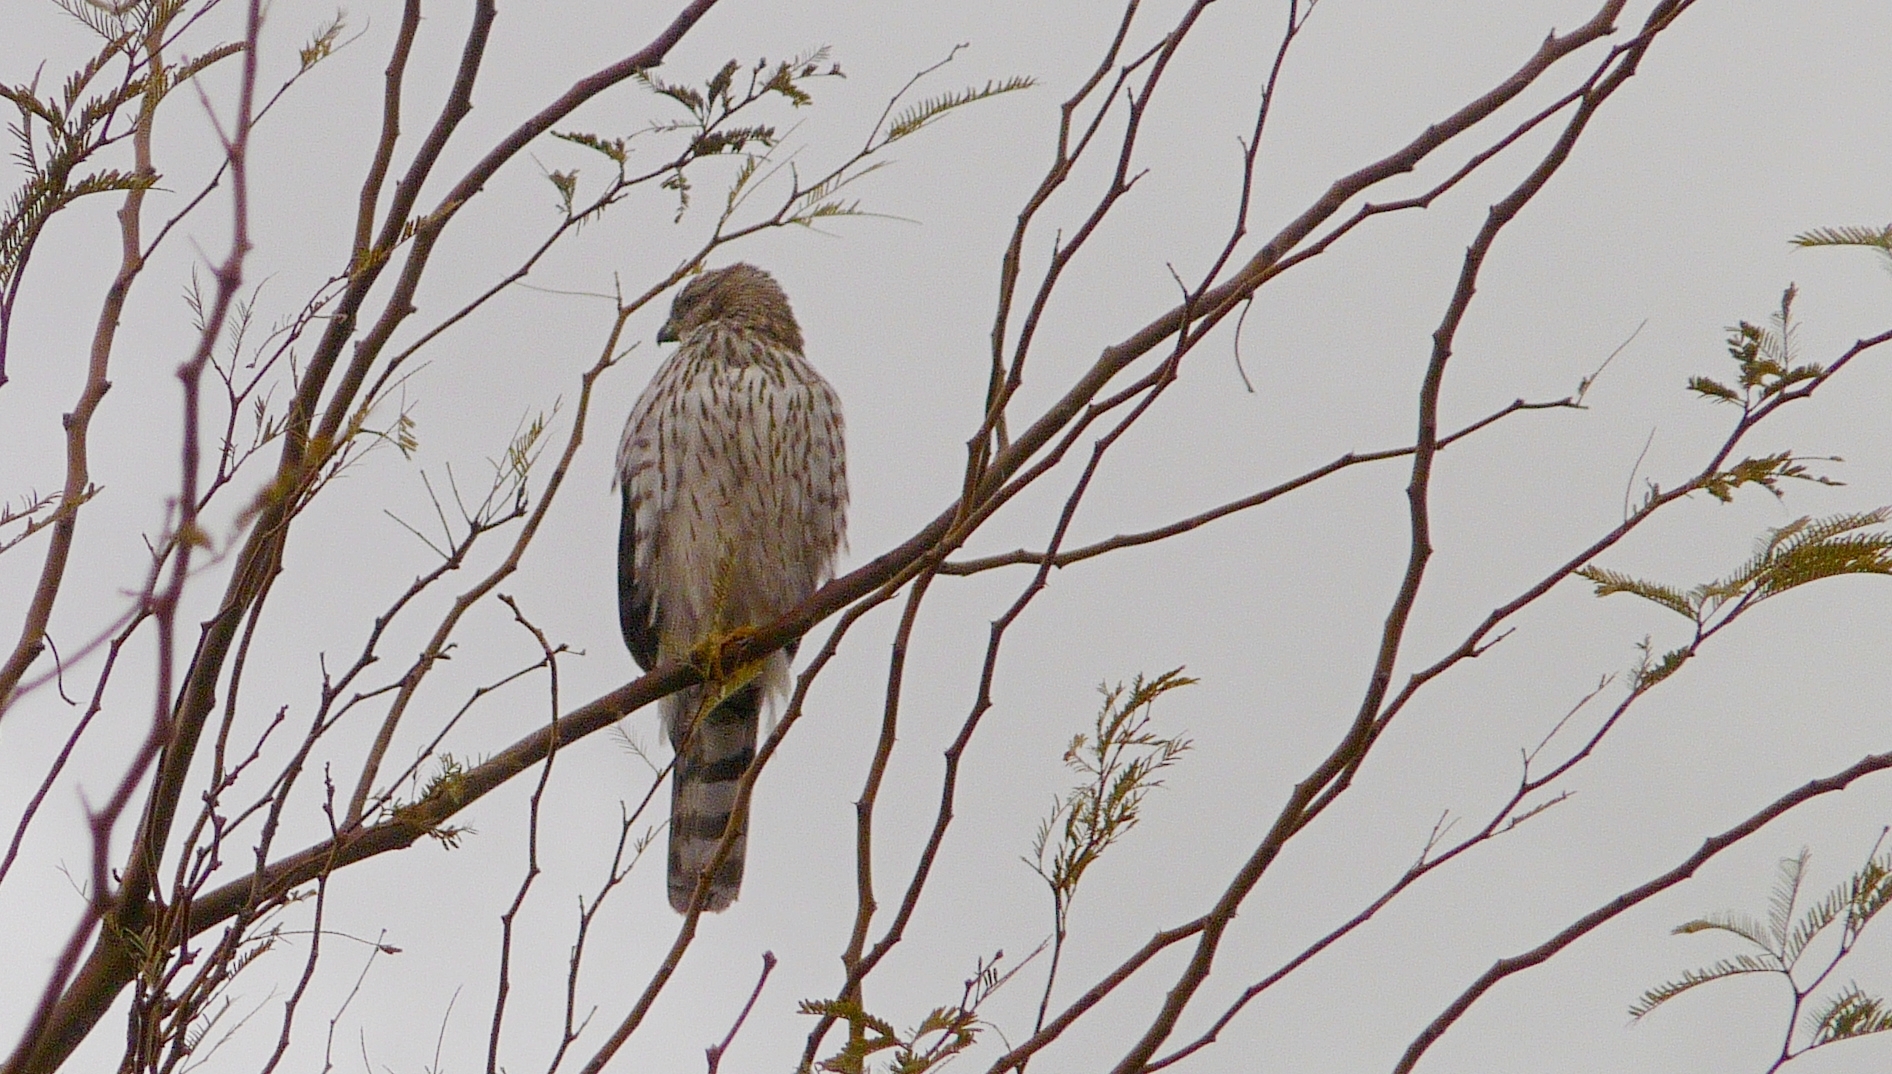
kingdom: Animalia
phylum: Chordata
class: Aves
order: Accipitriformes
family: Accipitridae
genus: Accipiter
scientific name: Accipiter cooperii
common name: Cooper's hawk
